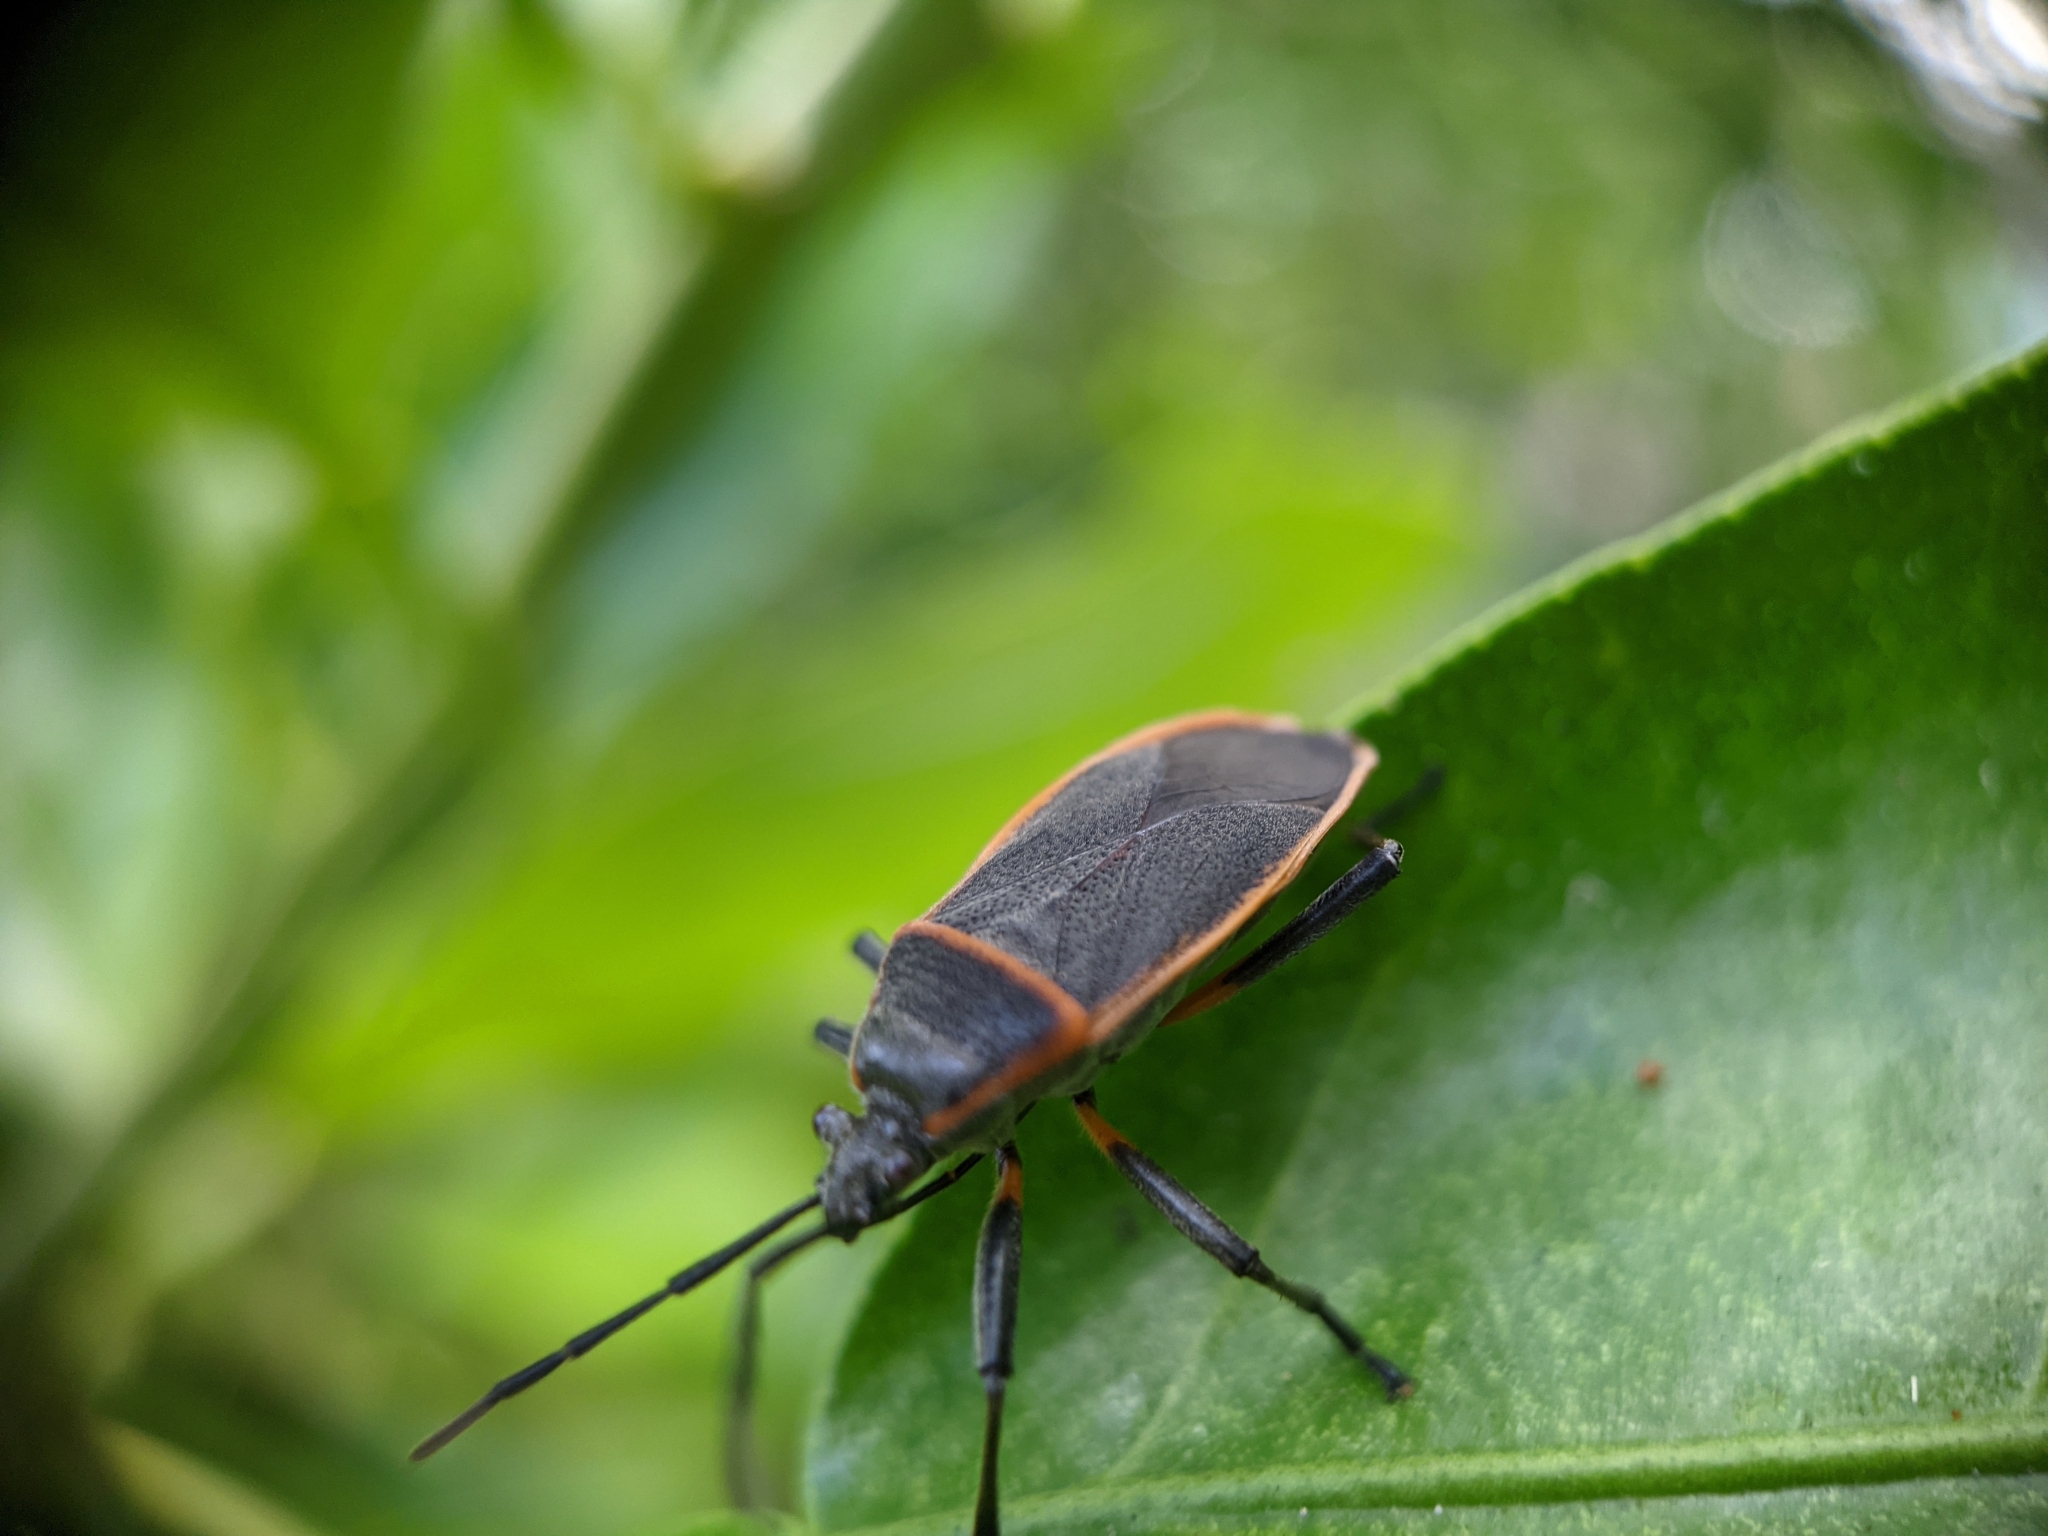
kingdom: Animalia
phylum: Arthropoda
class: Insecta
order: Hemiptera
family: Largidae
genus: Largus
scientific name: Largus succinctus
